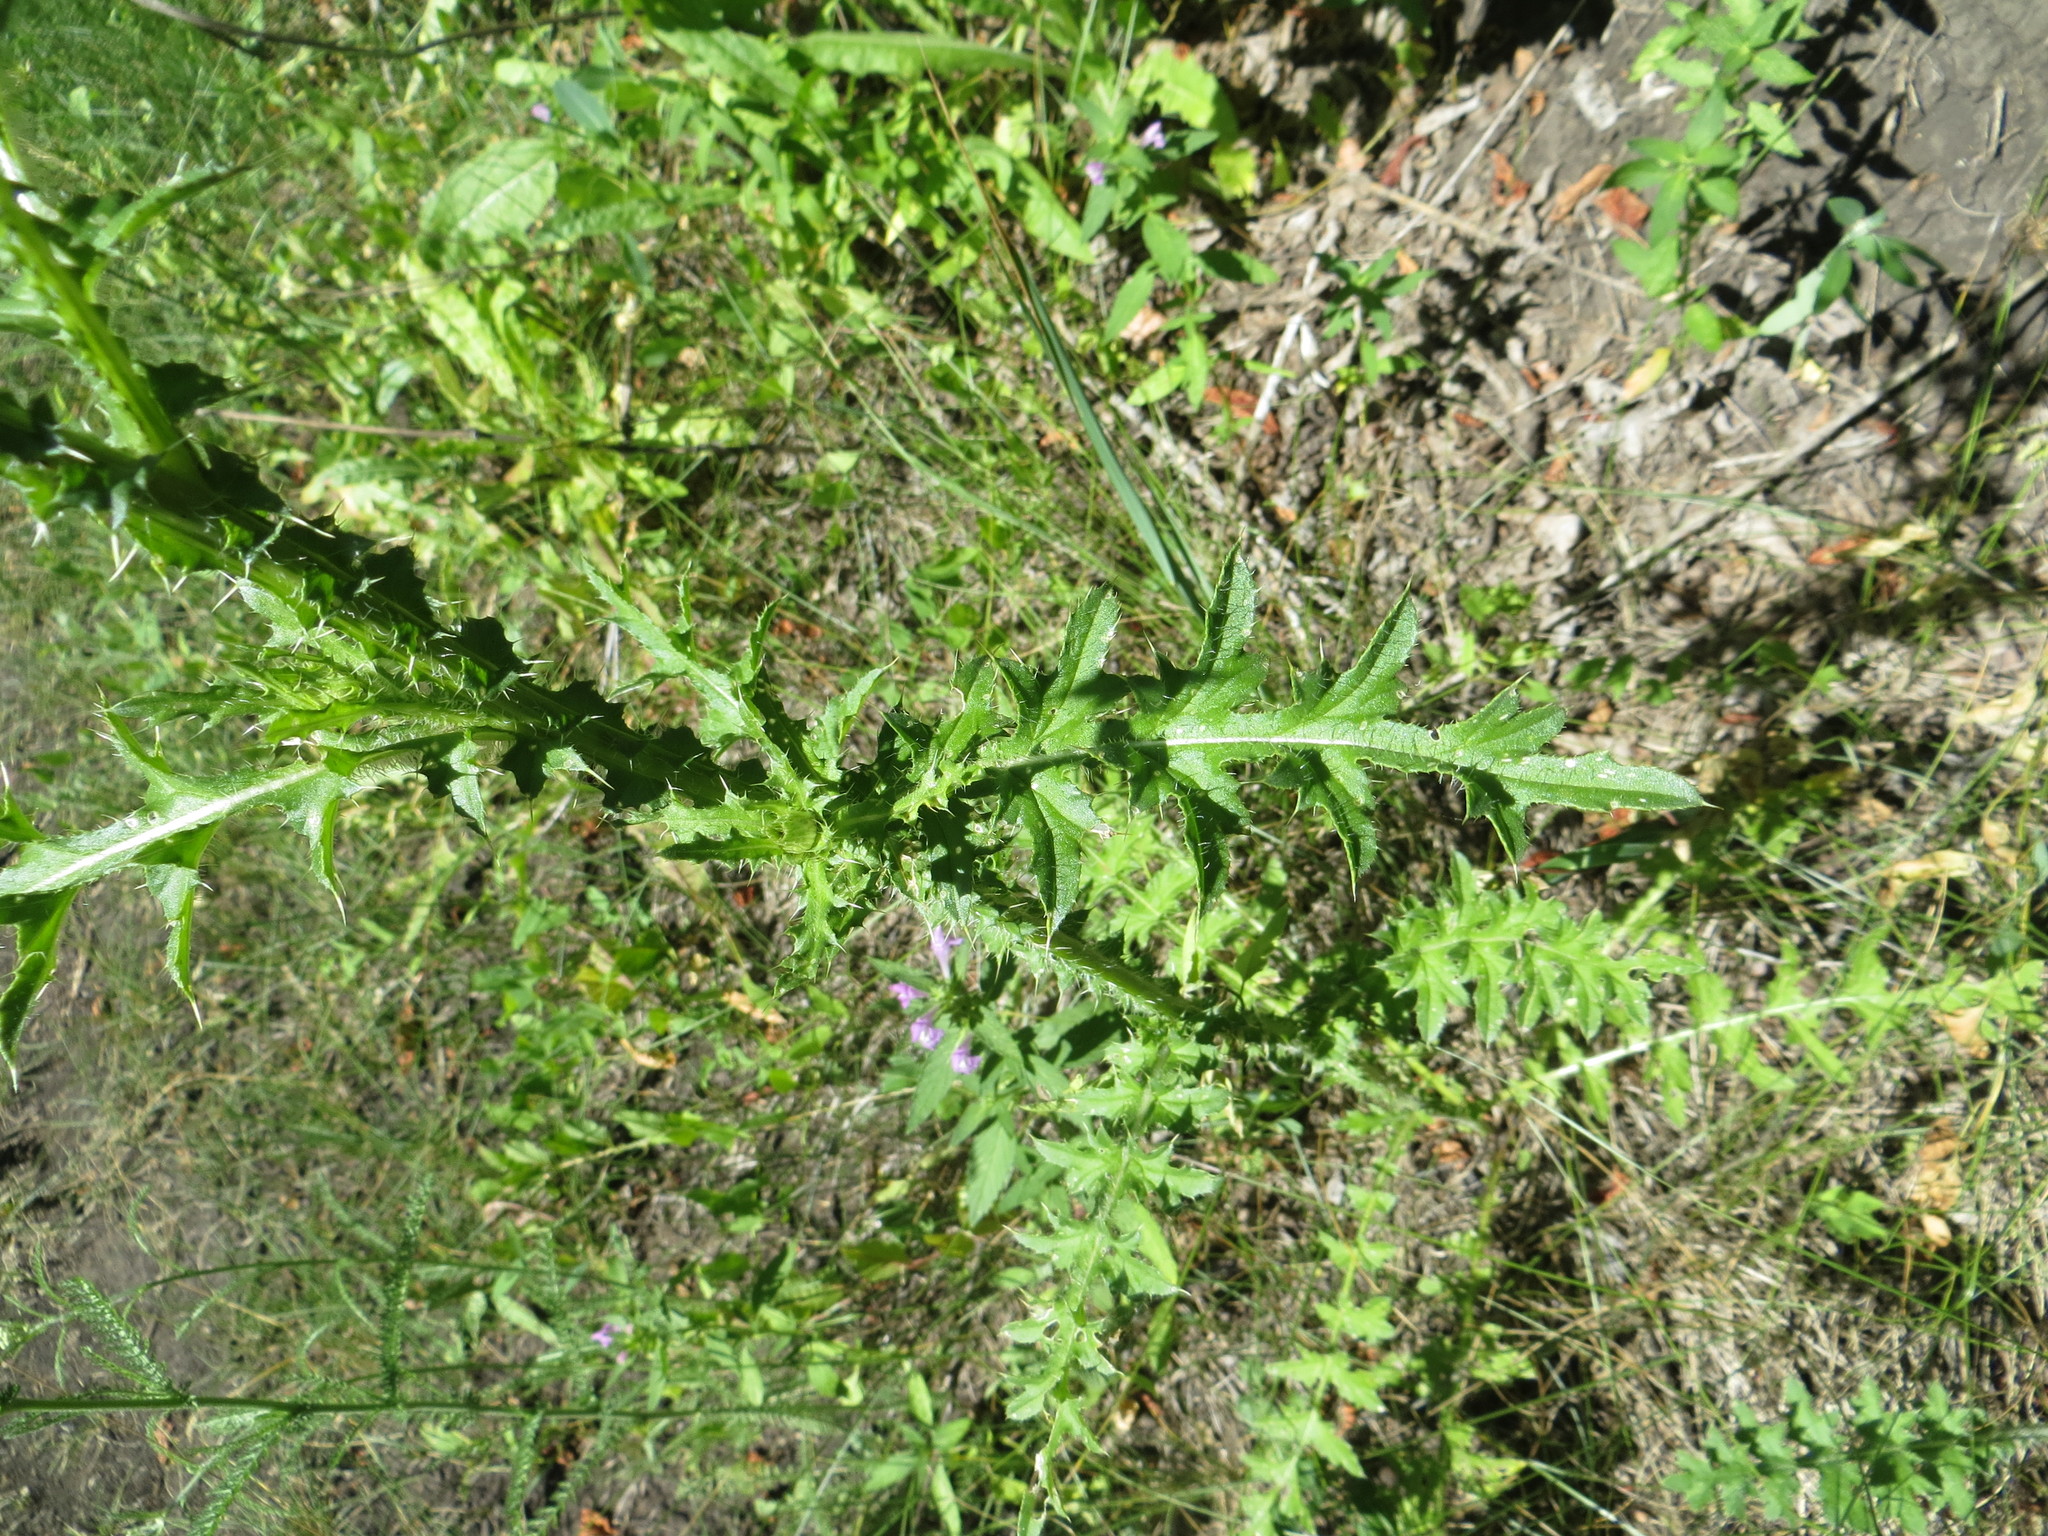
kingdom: Plantae
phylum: Tracheophyta
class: Magnoliopsida
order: Asterales
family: Asteraceae
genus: Carduus
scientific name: Carduus acanthoides
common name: Plumeless thistle
